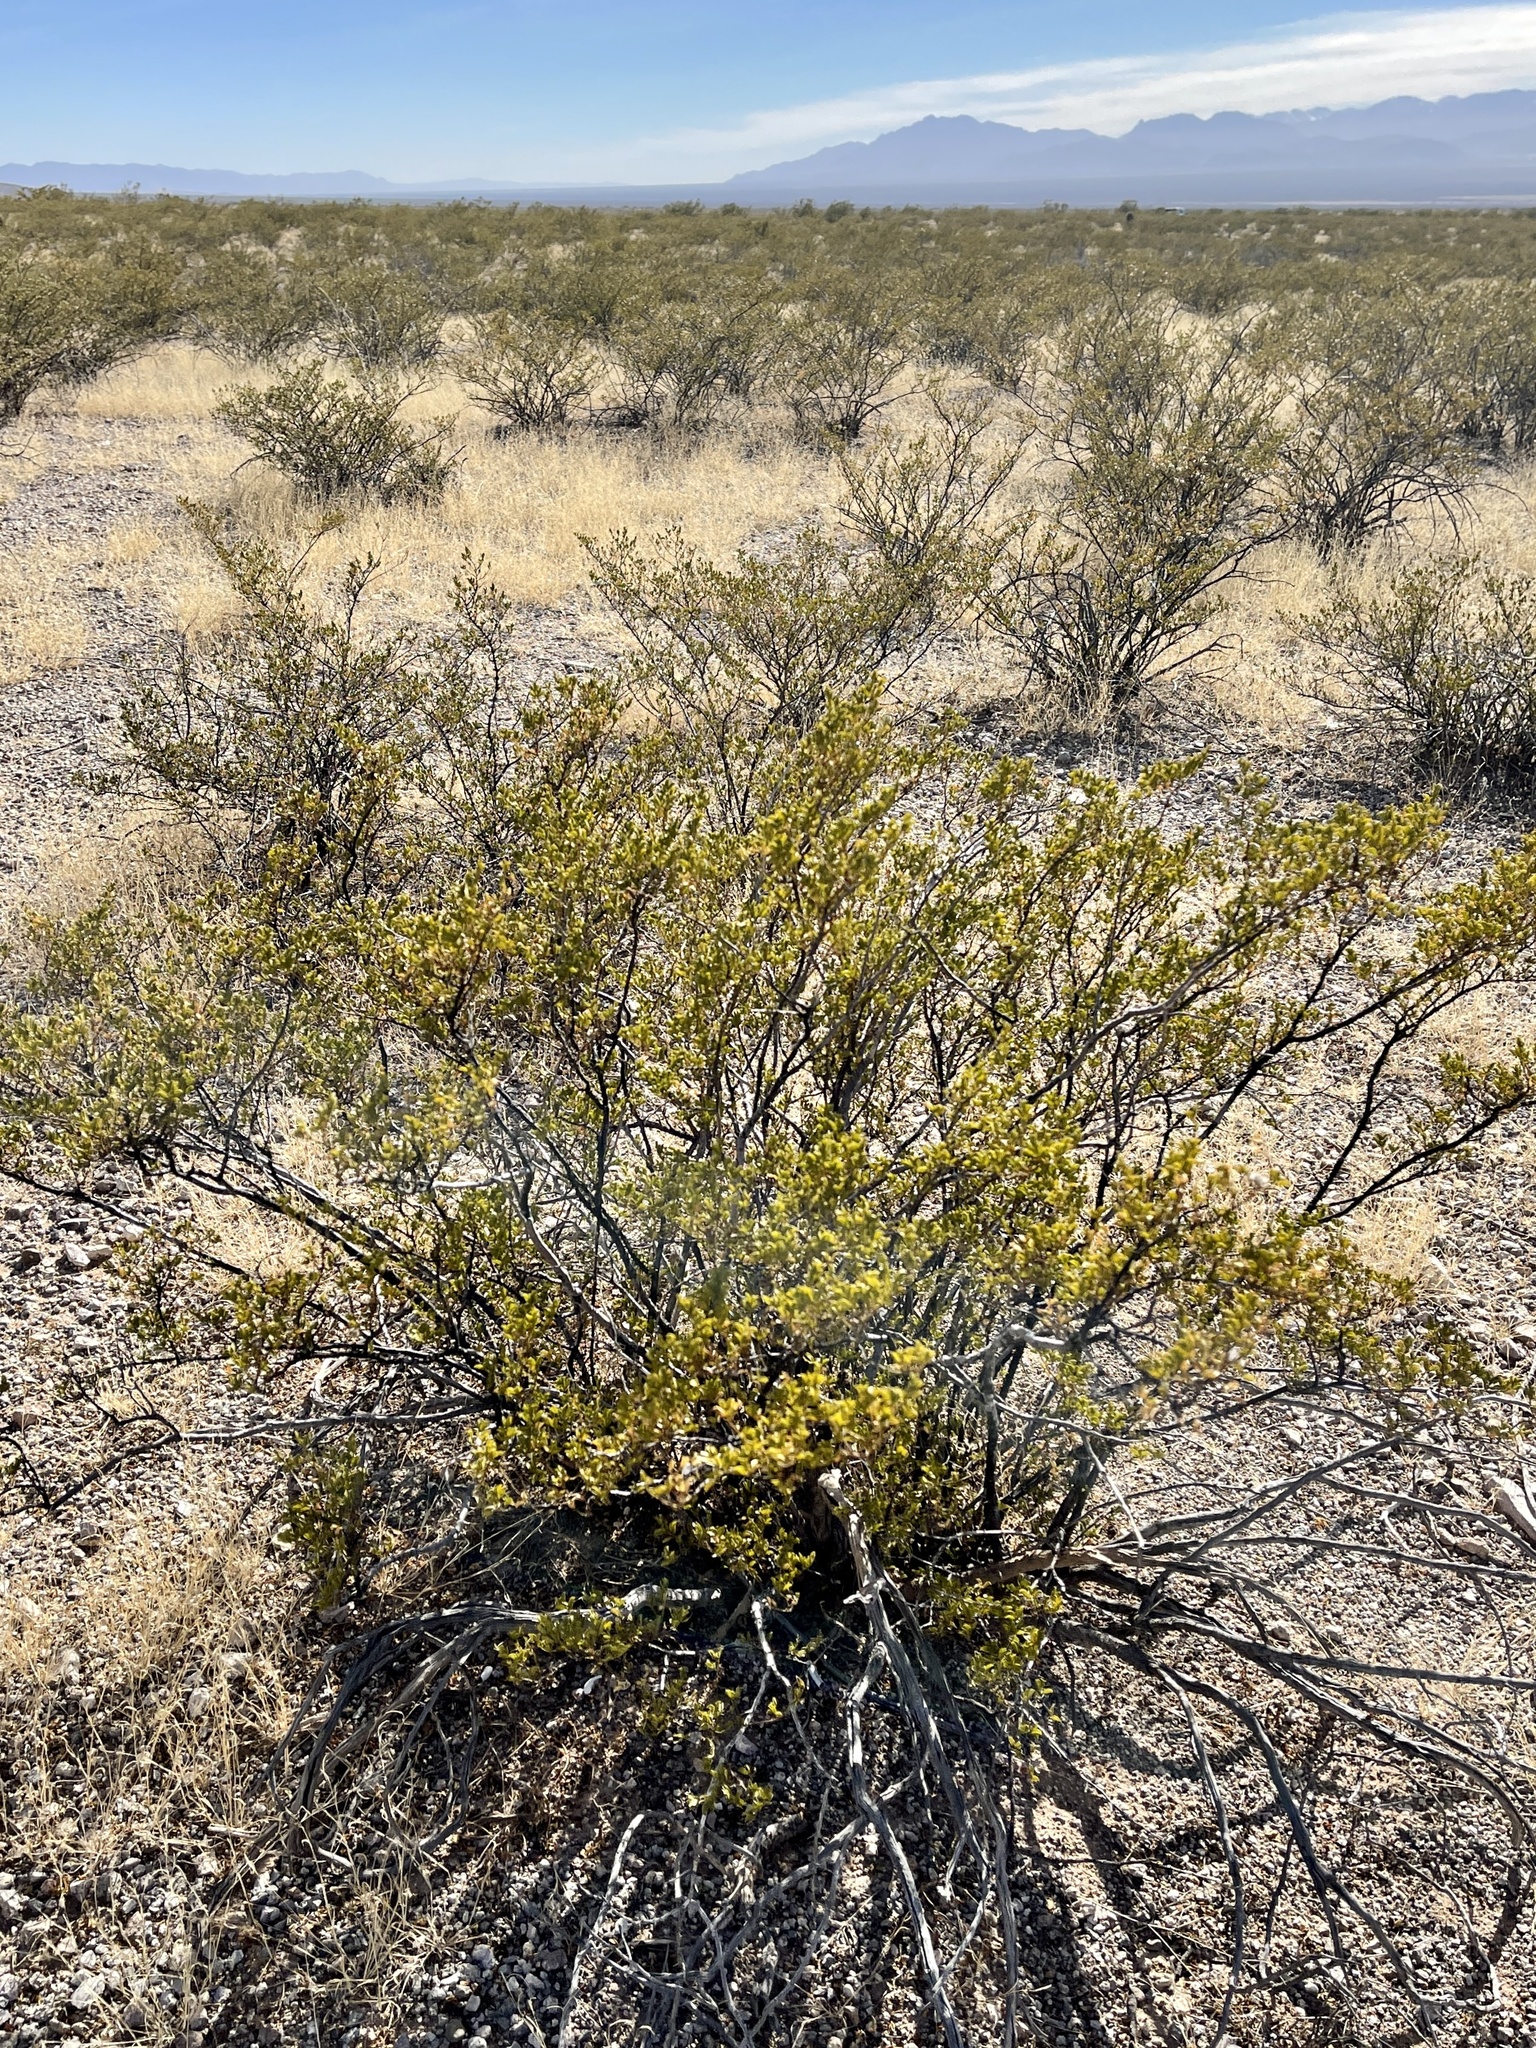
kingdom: Plantae
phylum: Tracheophyta
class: Magnoliopsida
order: Zygophyllales
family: Zygophyllaceae
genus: Larrea
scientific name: Larrea tridentata
